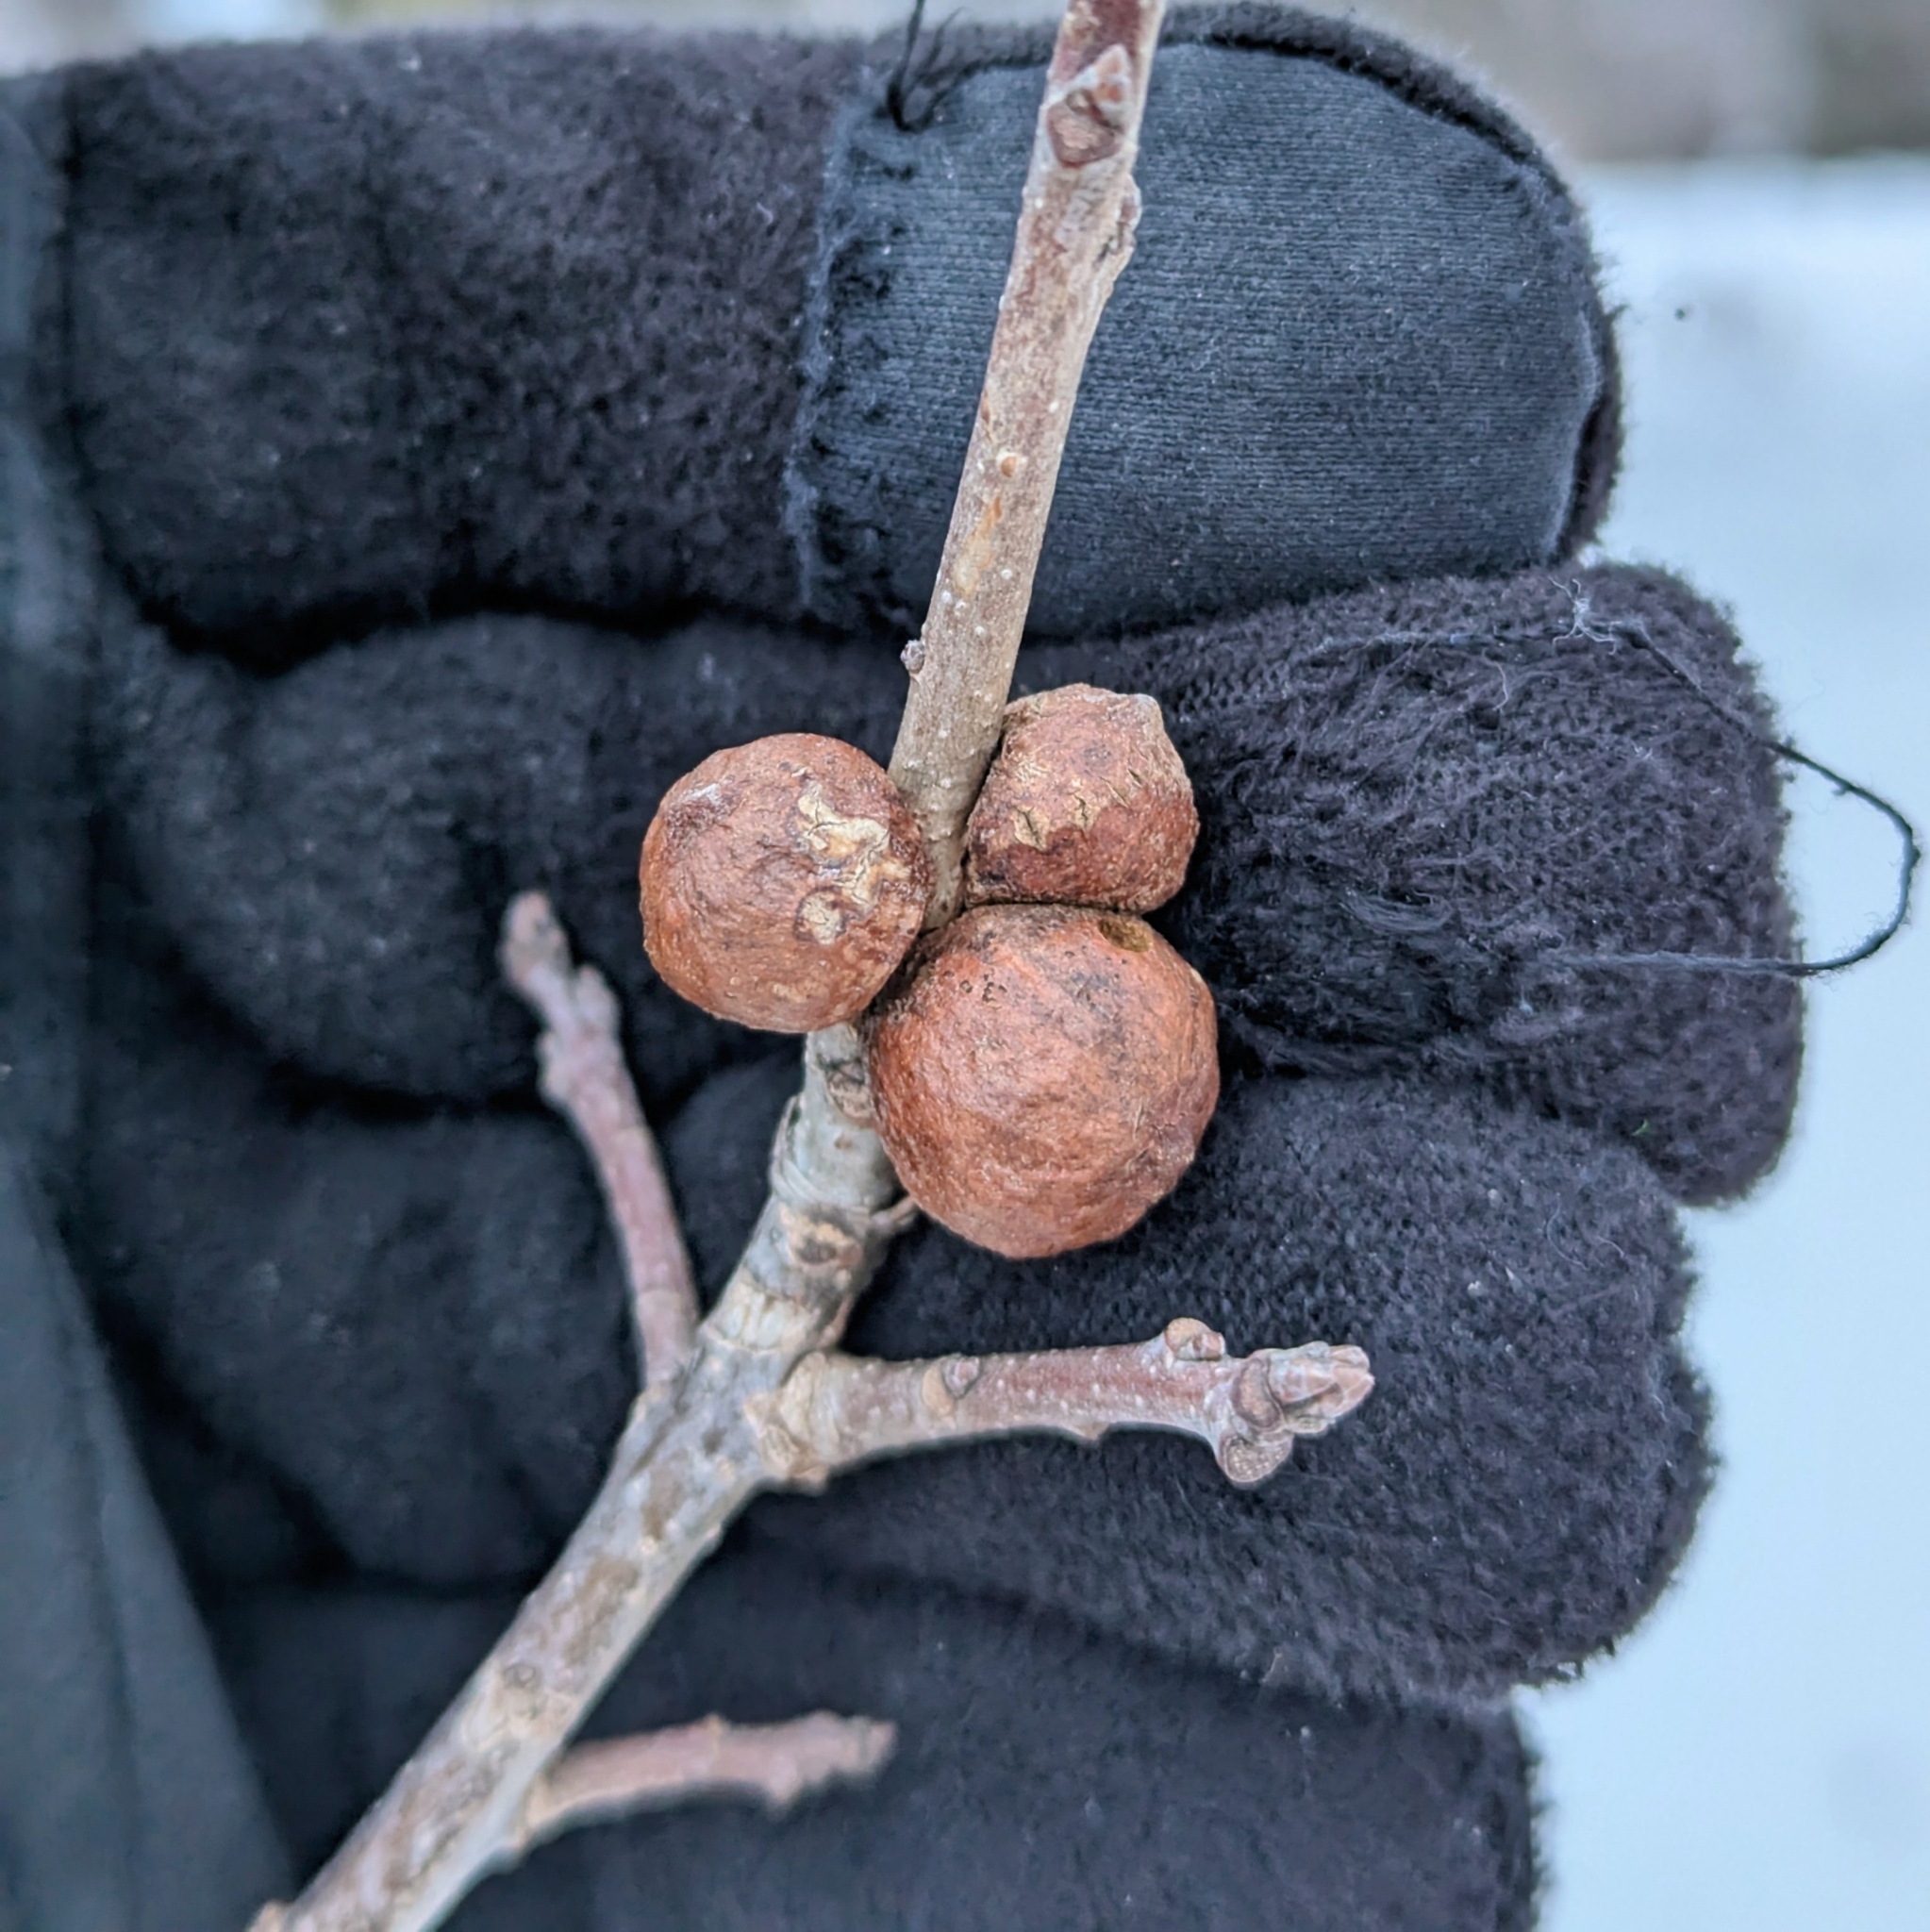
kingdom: Animalia
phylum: Arthropoda
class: Insecta
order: Hymenoptera
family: Cynipidae
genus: Disholcaspis
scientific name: Disholcaspis
